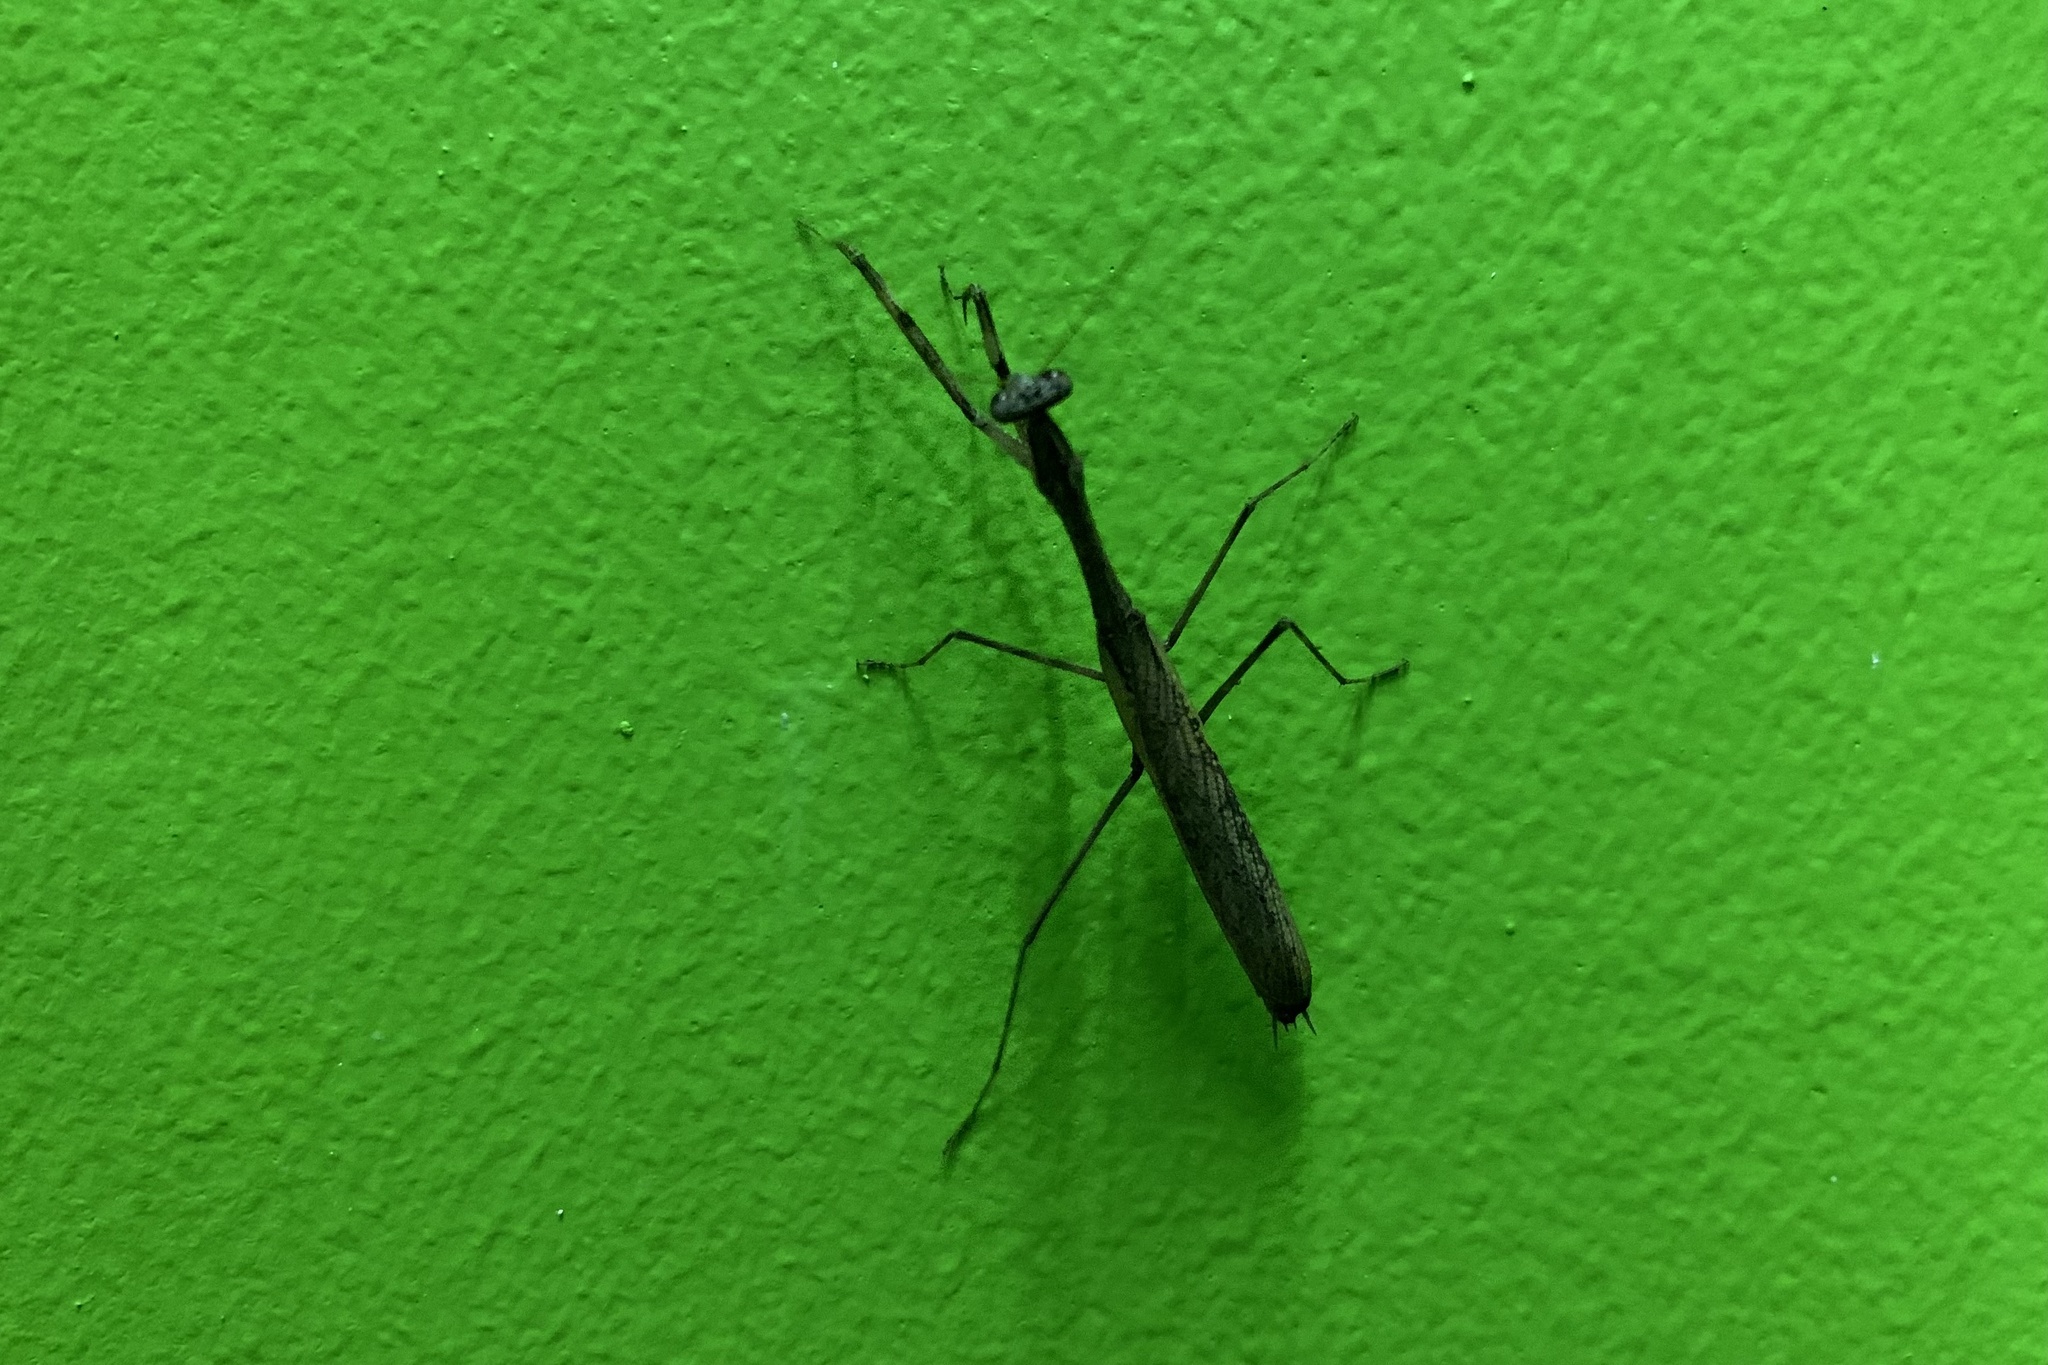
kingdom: Animalia
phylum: Arthropoda
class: Insecta
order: Mantodea
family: Mantidae
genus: Statilia
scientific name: Statilia maculata
